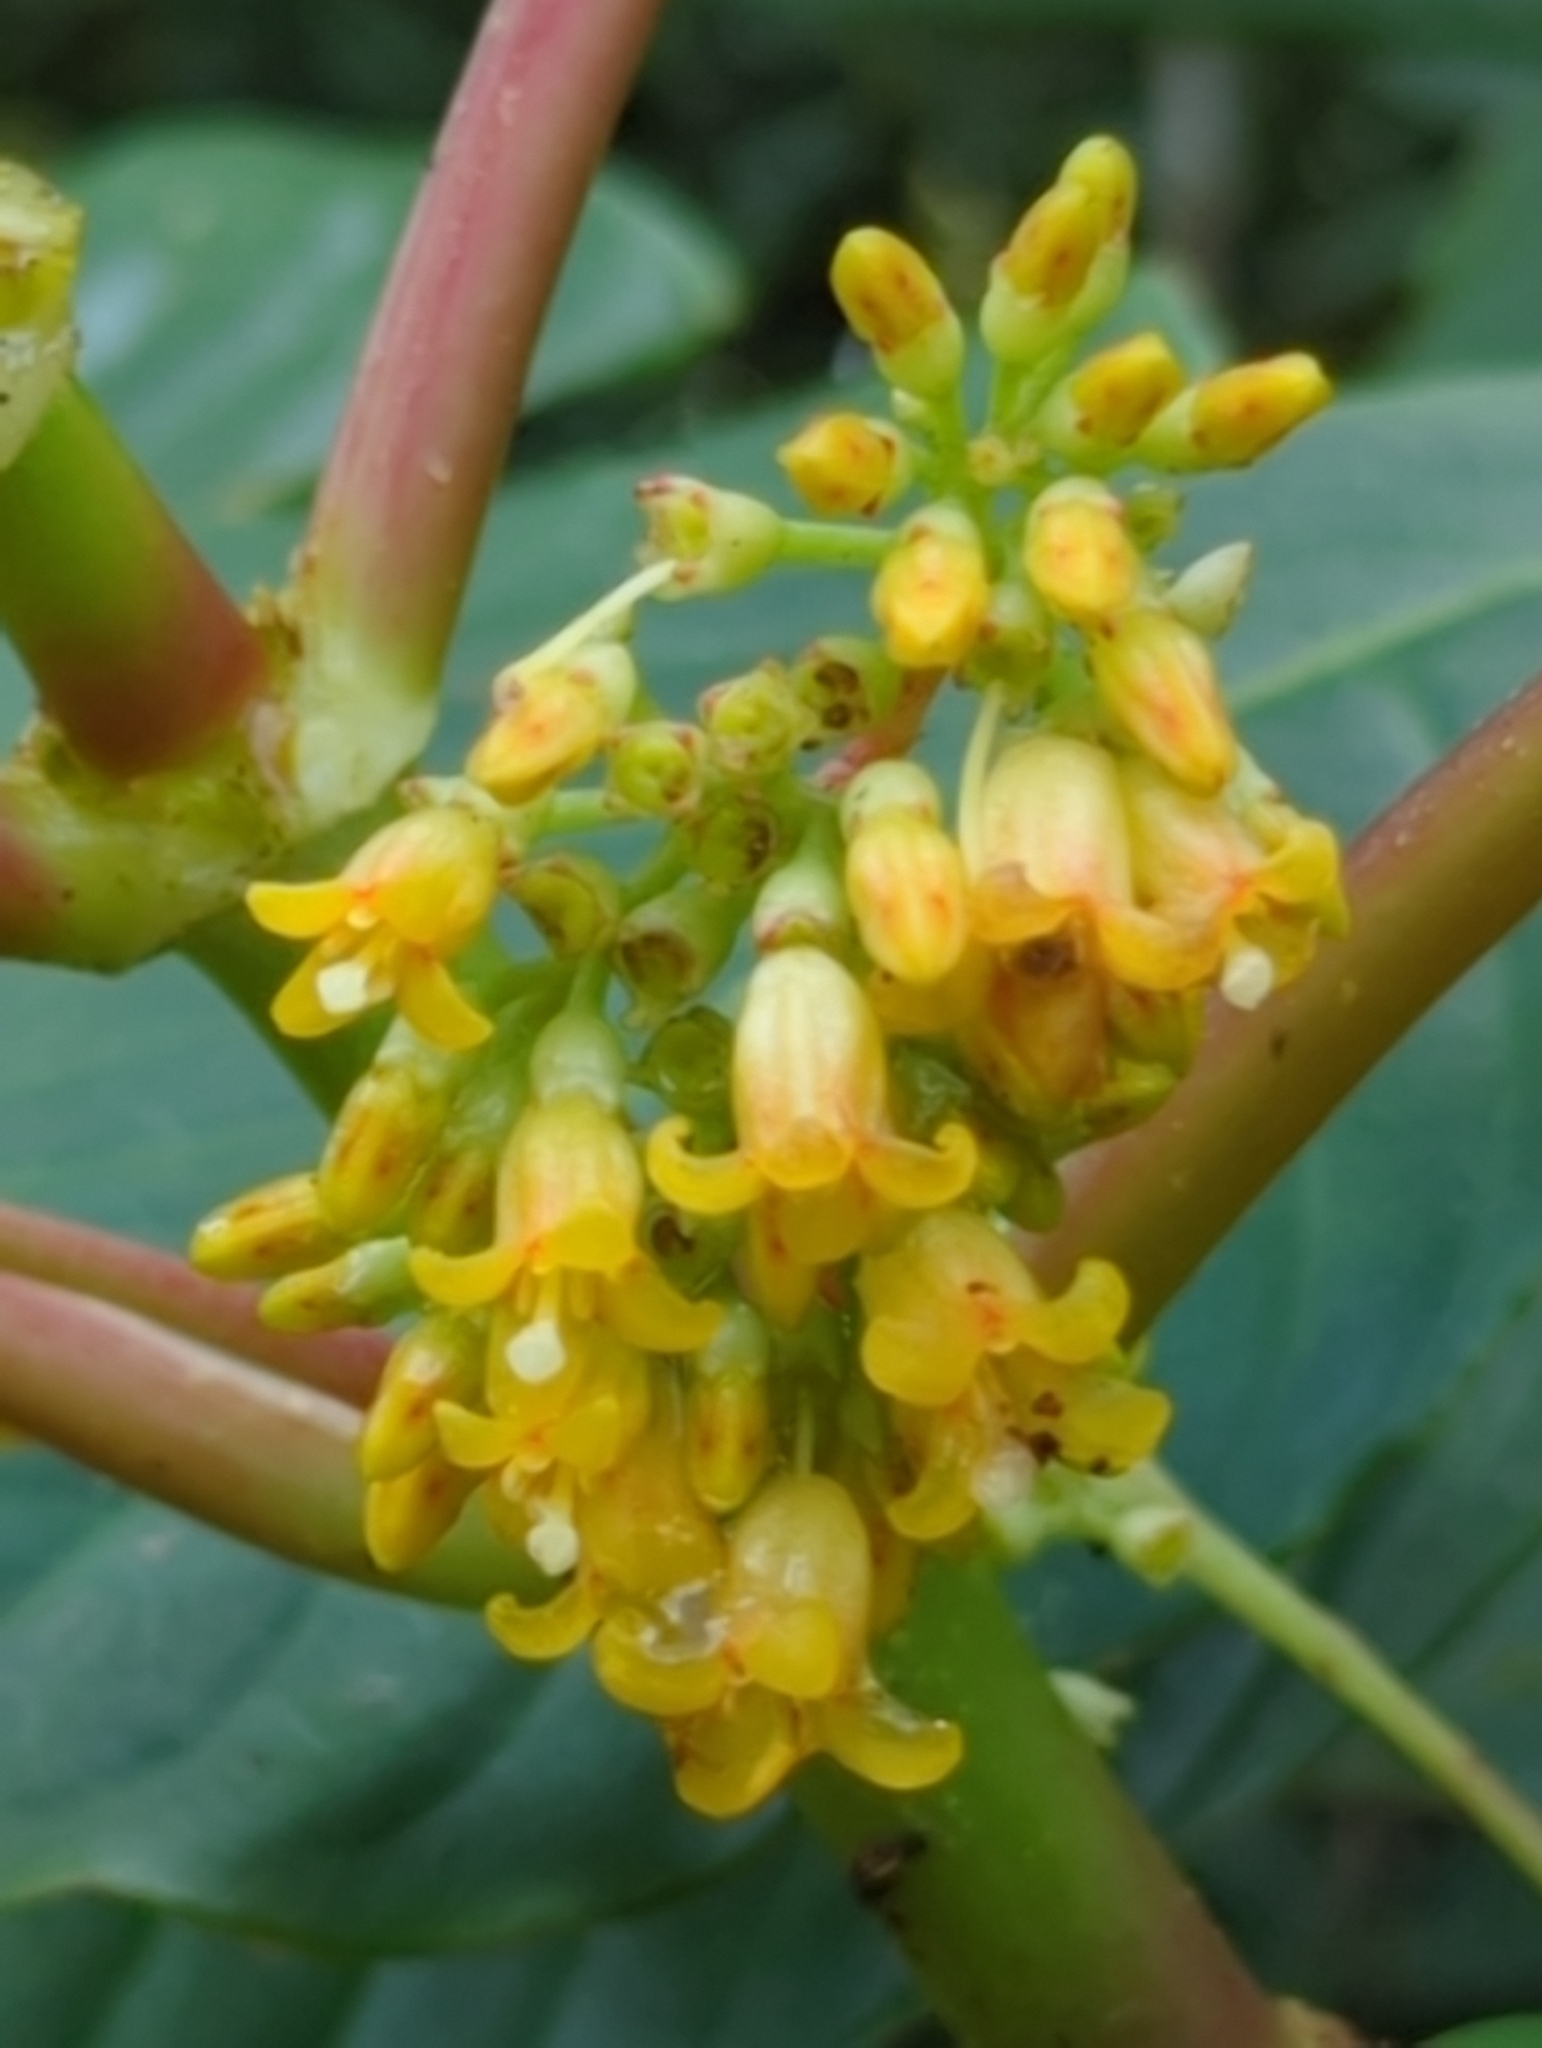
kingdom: Plantae
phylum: Tracheophyta
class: Magnoliopsida
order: Gentianales
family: Rubiaceae
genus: Hoffmannia
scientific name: Hoffmannia josefina
